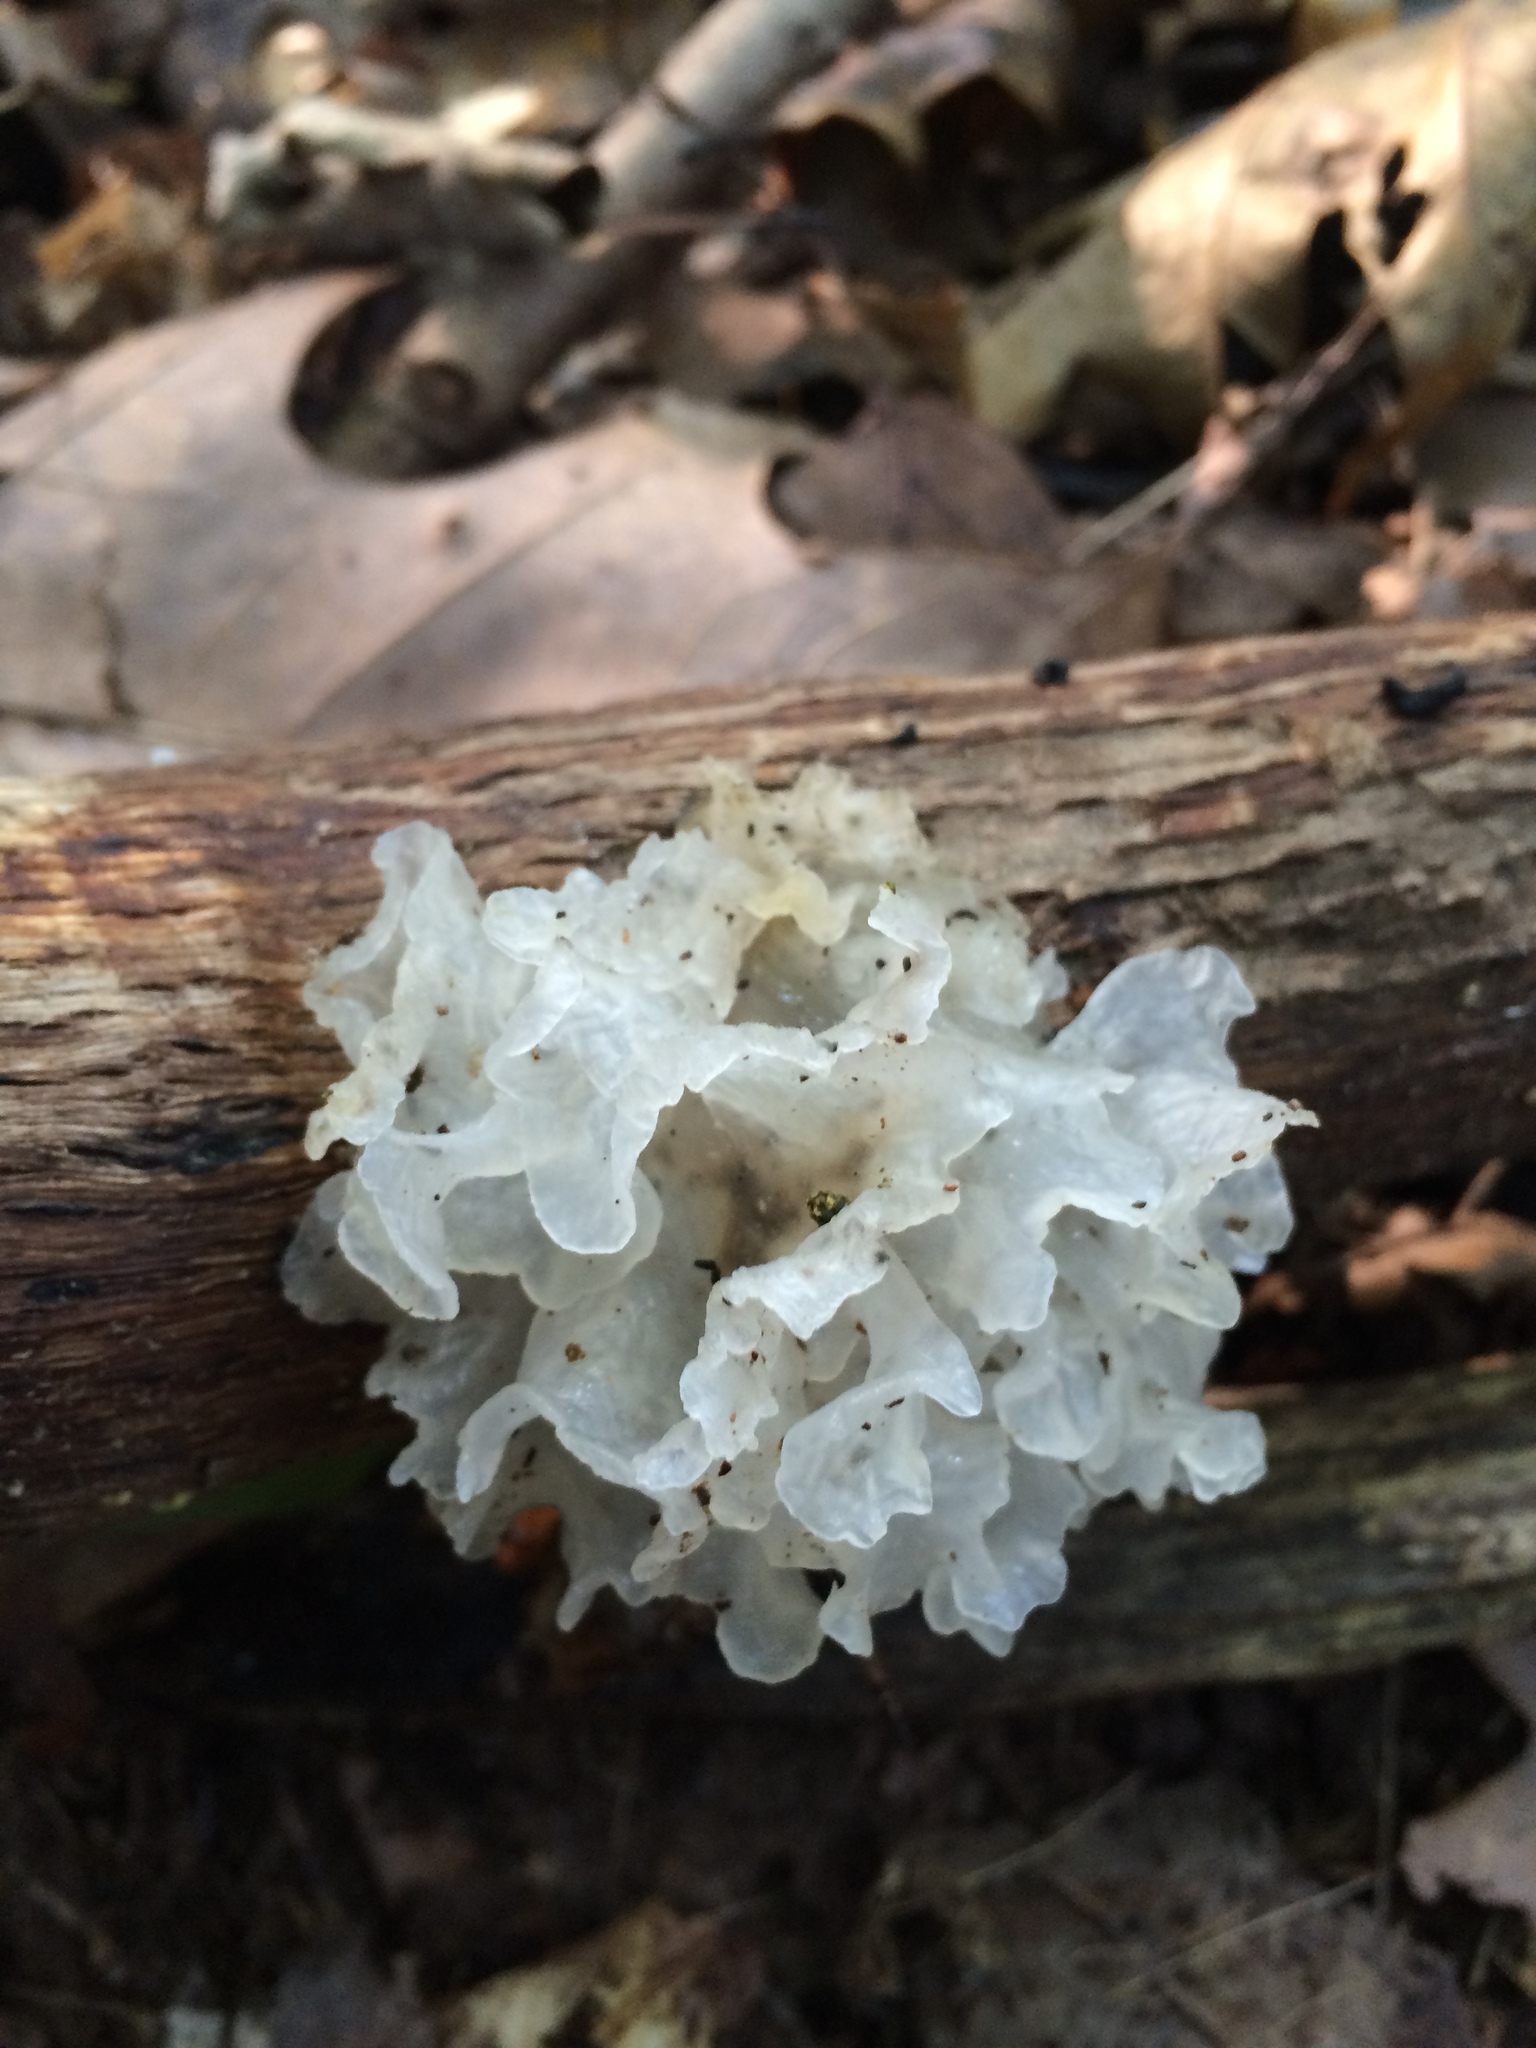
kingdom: Fungi
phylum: Basidiomycota
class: Tremellomycetes
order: Tremellales
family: Tremellaceae
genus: Tremella
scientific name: Tremella fuciformis
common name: Snow fungus
